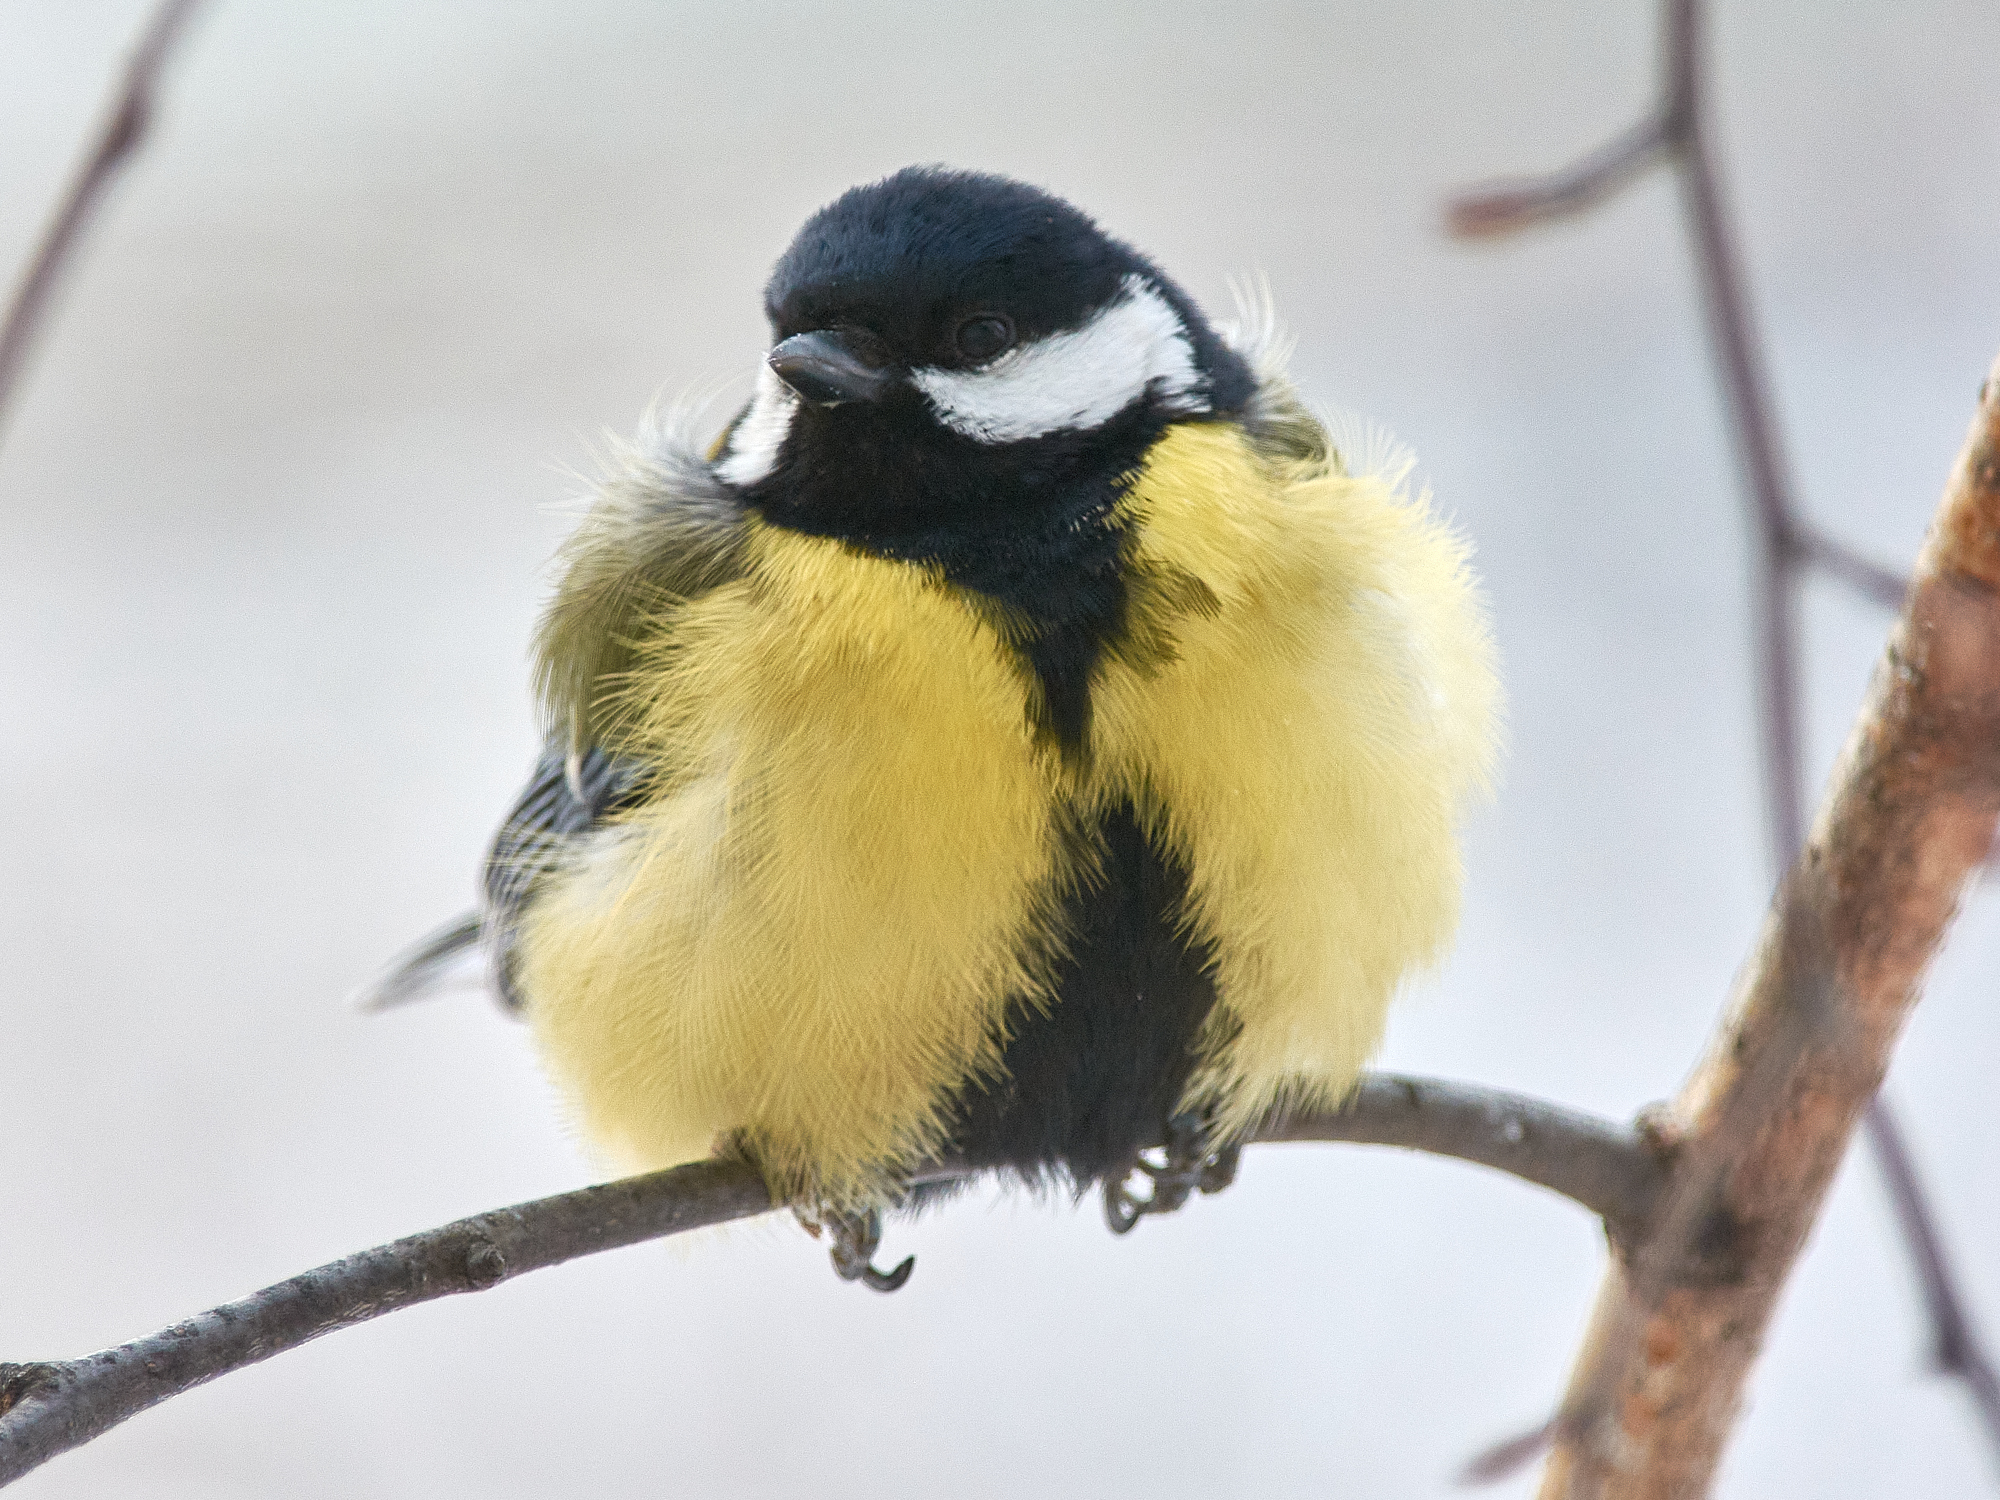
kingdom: Animalia
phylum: Chordata
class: Aves
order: Passeriformes
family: Paridae
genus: Parus
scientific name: Parus major
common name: Great tit
